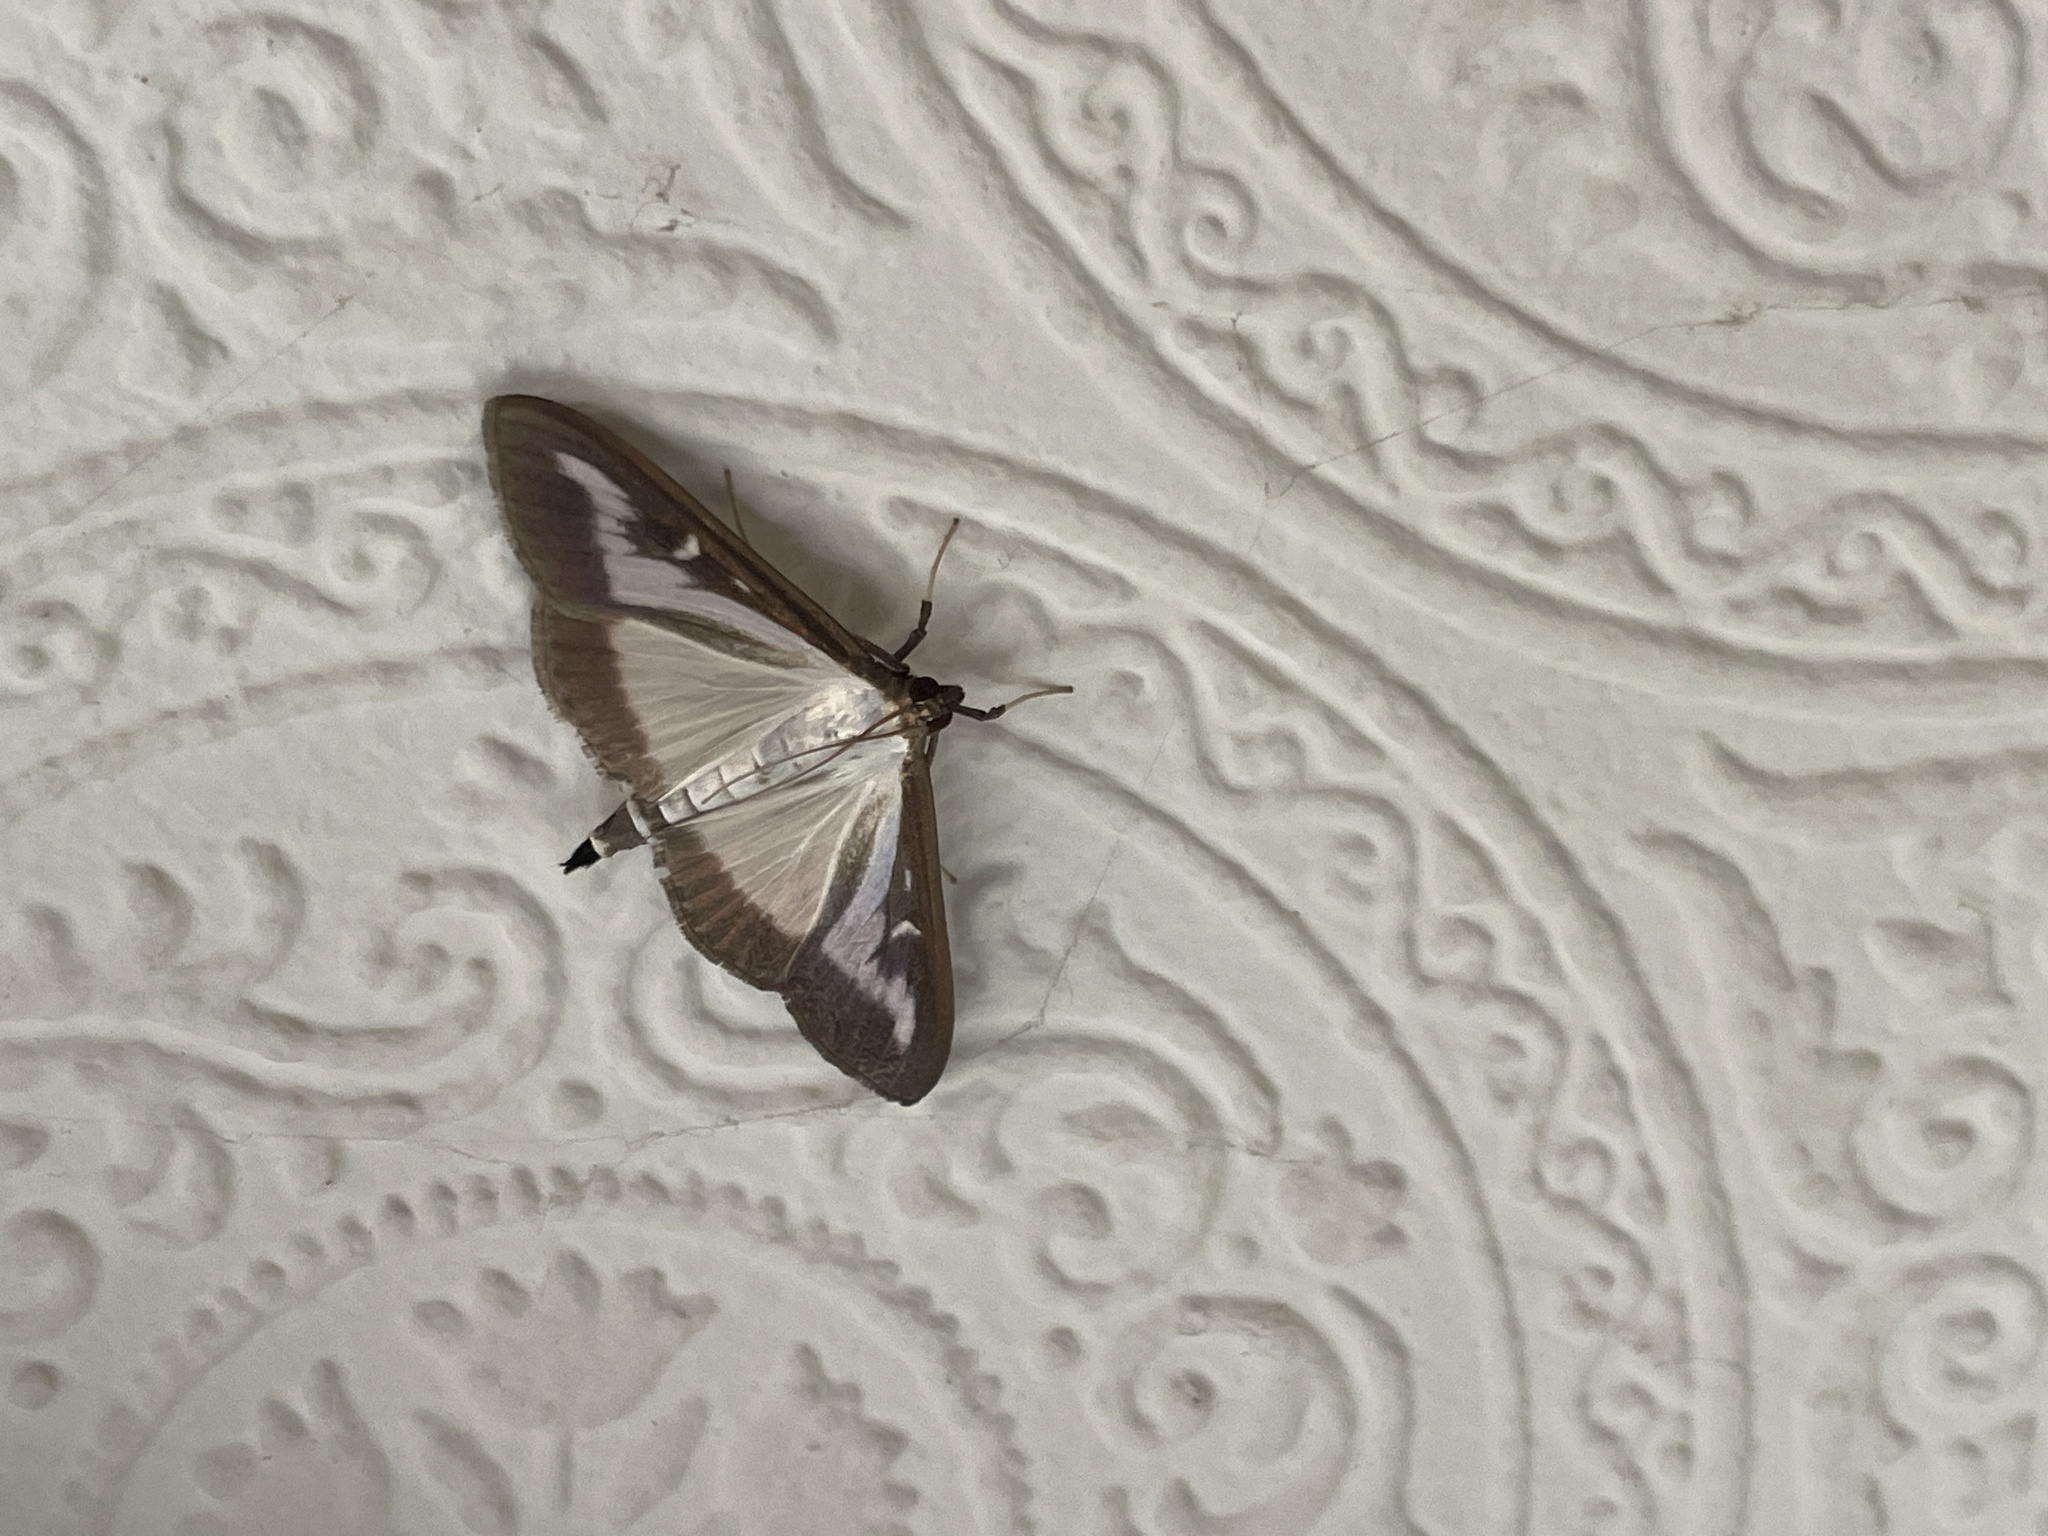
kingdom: Animalia
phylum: Arthropoda
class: Insecta
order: Lepidoptera
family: Crambidae
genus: Cydalima
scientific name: Cydalima perspectalis
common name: Box tree moth
